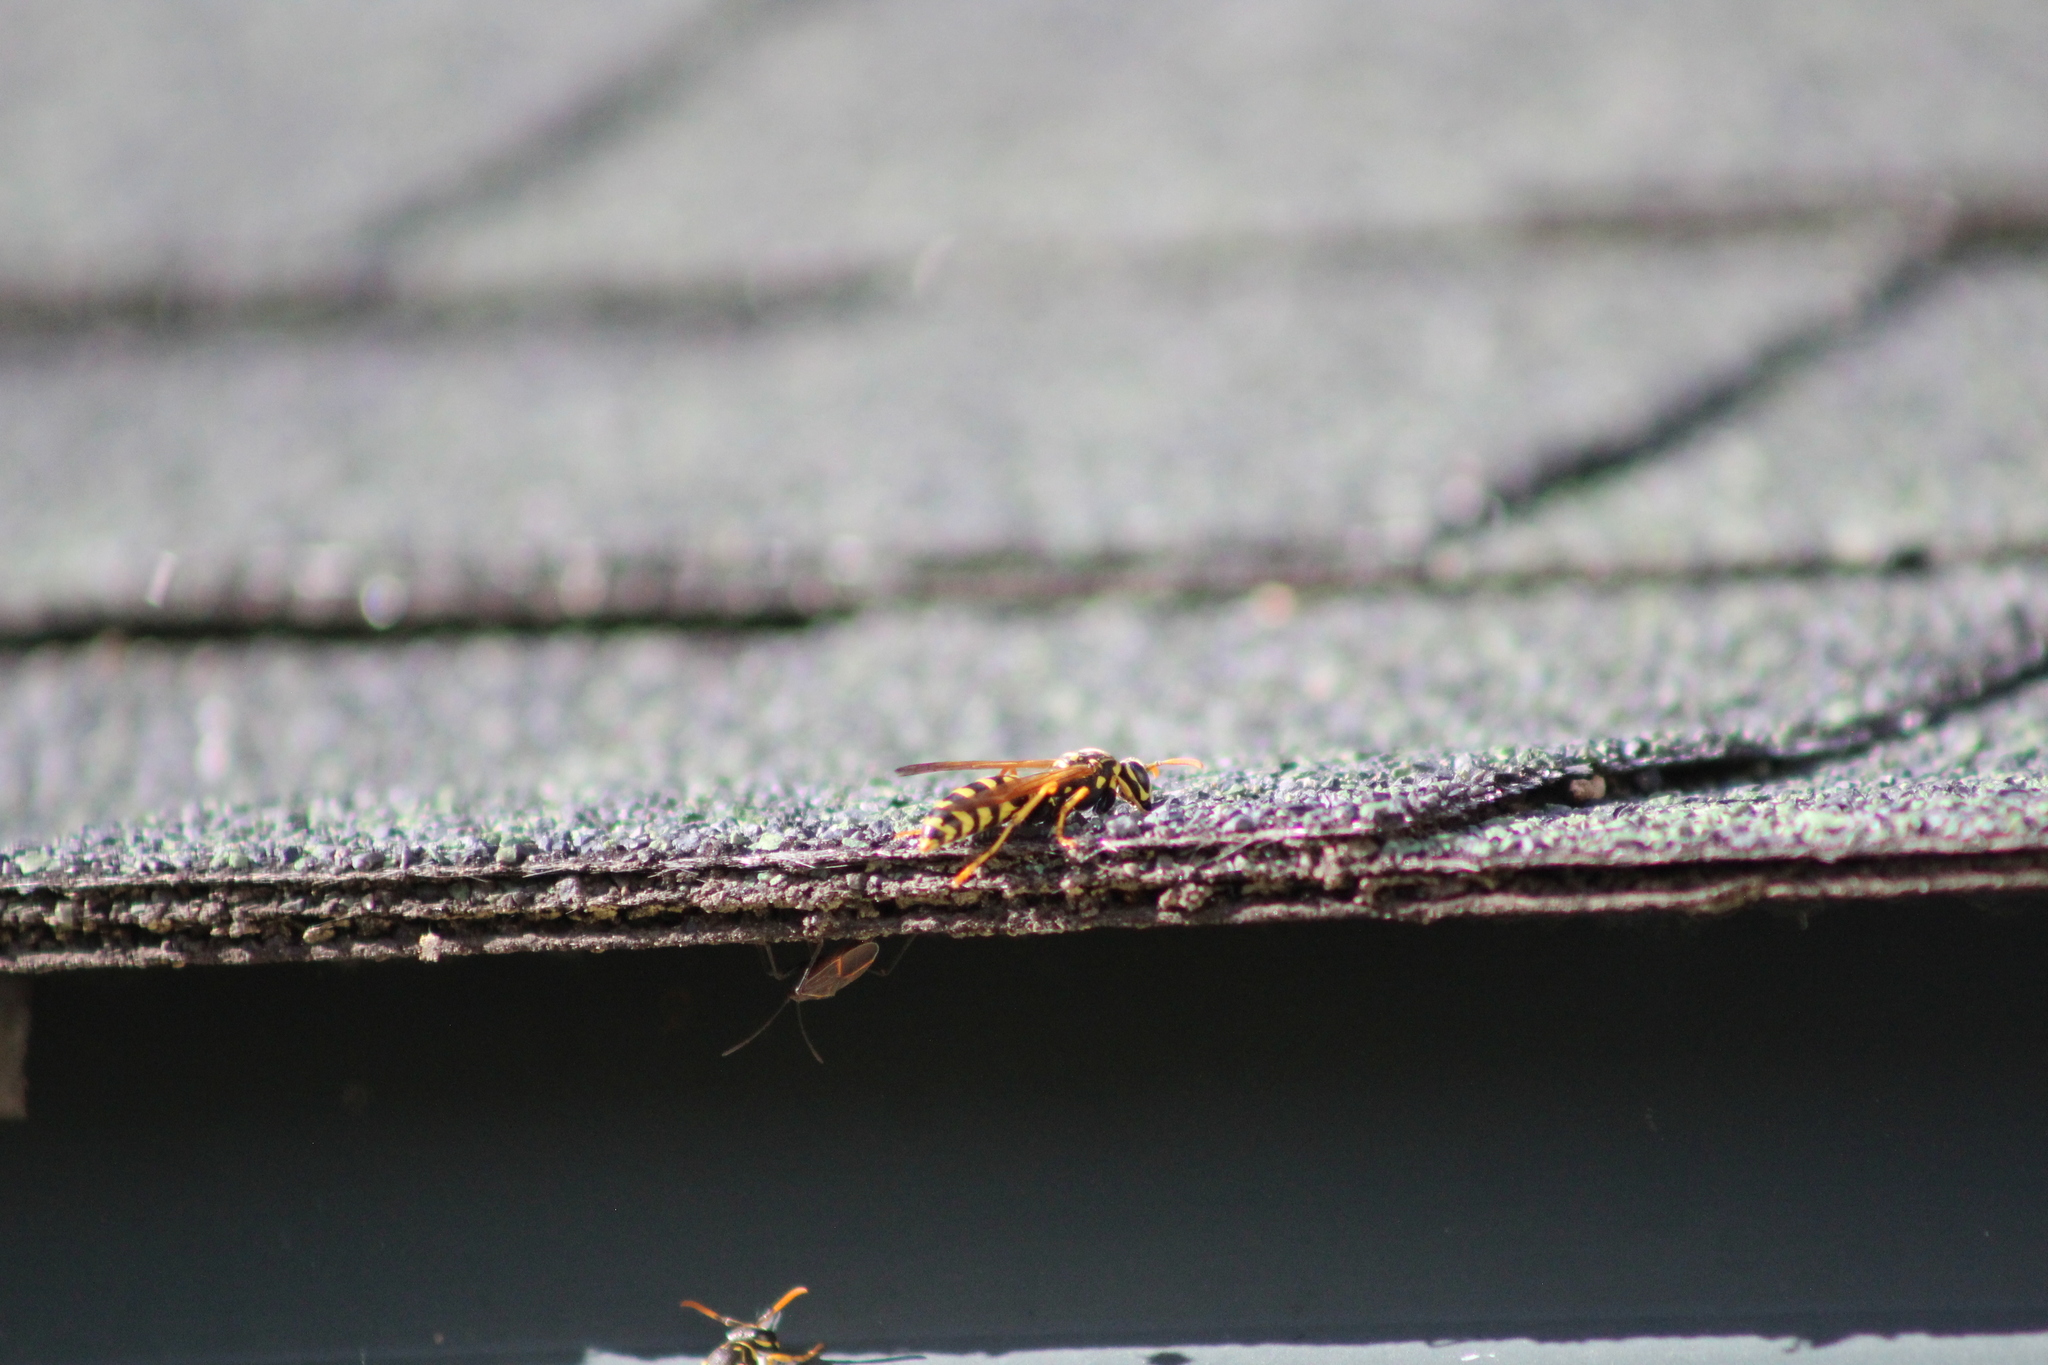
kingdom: Animalia
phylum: Arthropoda
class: Insecta
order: Hymenoptera
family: Eumenidae
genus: Polistes
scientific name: Polistes dominula
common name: Paper wasp
